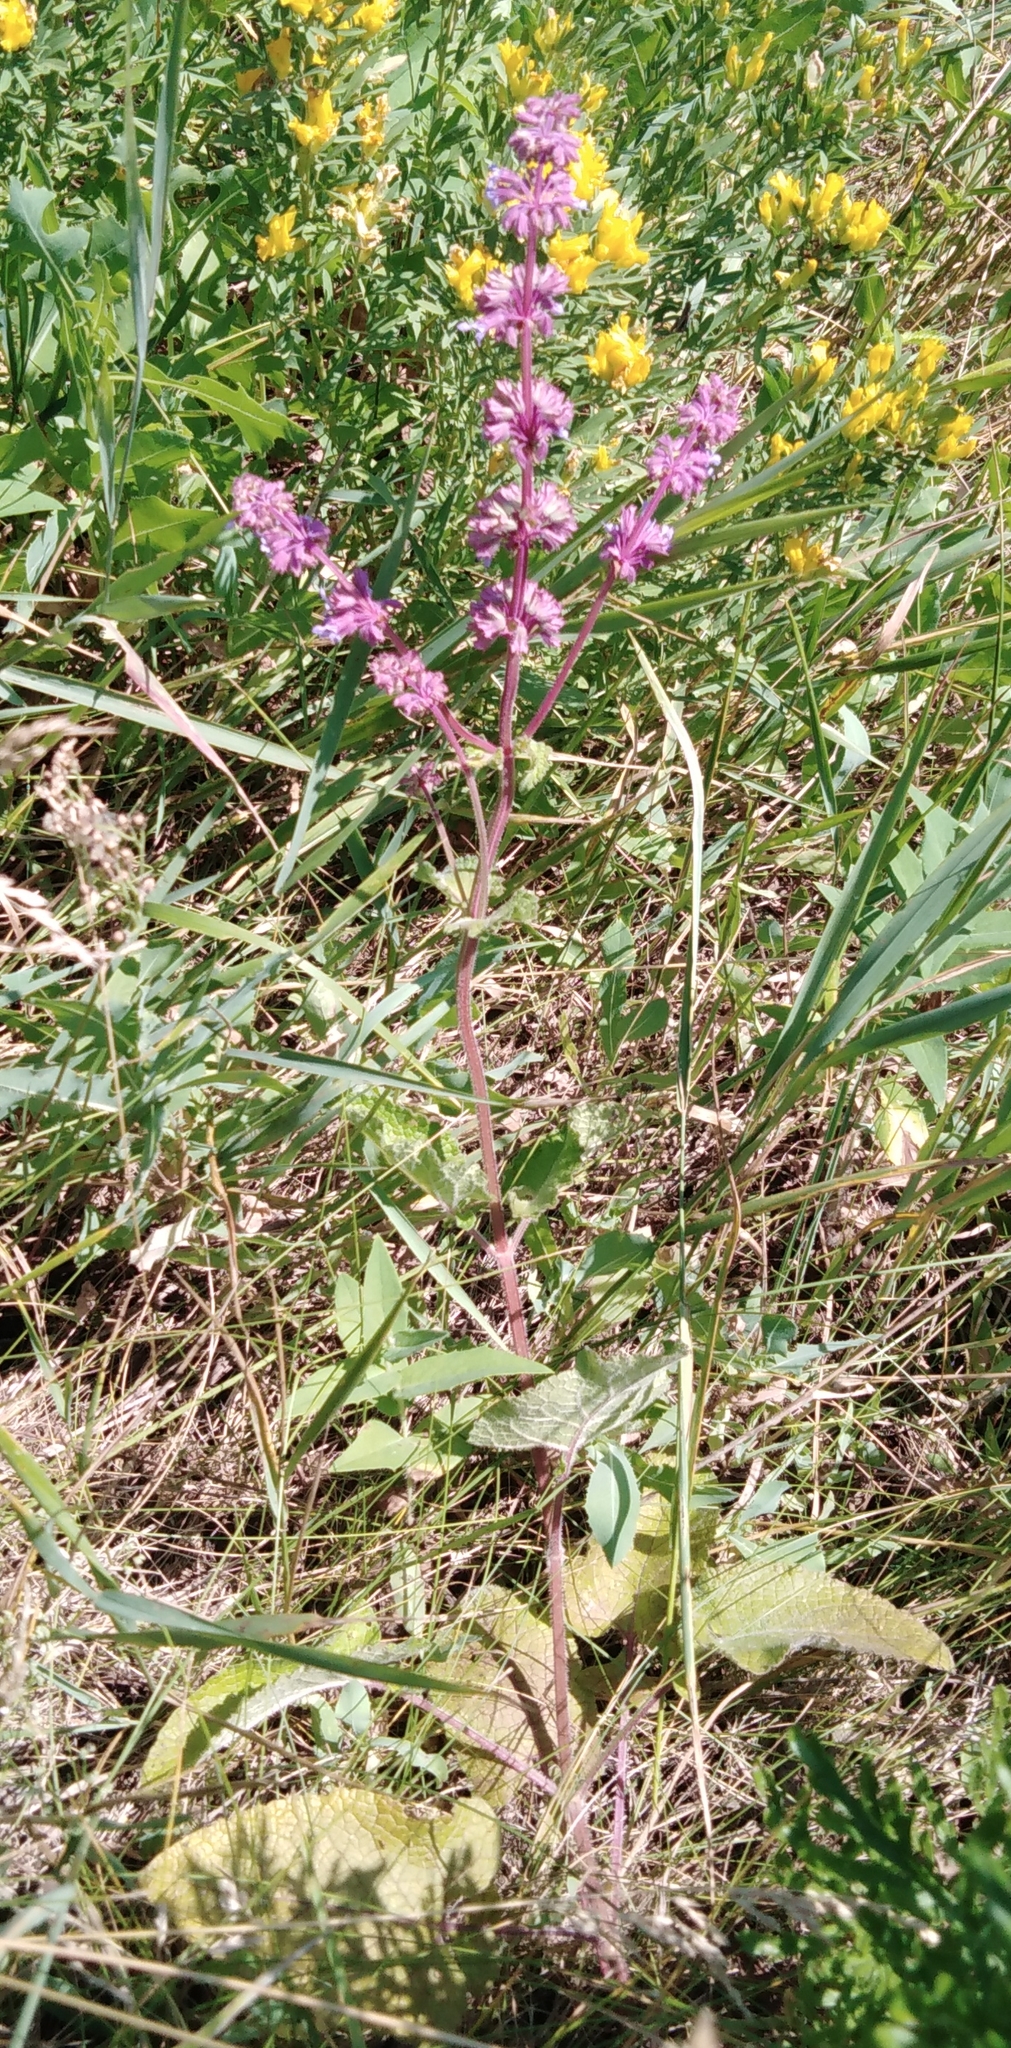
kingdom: Plantae
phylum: Tracheophyta
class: Magnoliopsida
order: Lamiales
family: Lamiaceae
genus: Salvia
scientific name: Salvia verticillata
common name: Whorled clary
